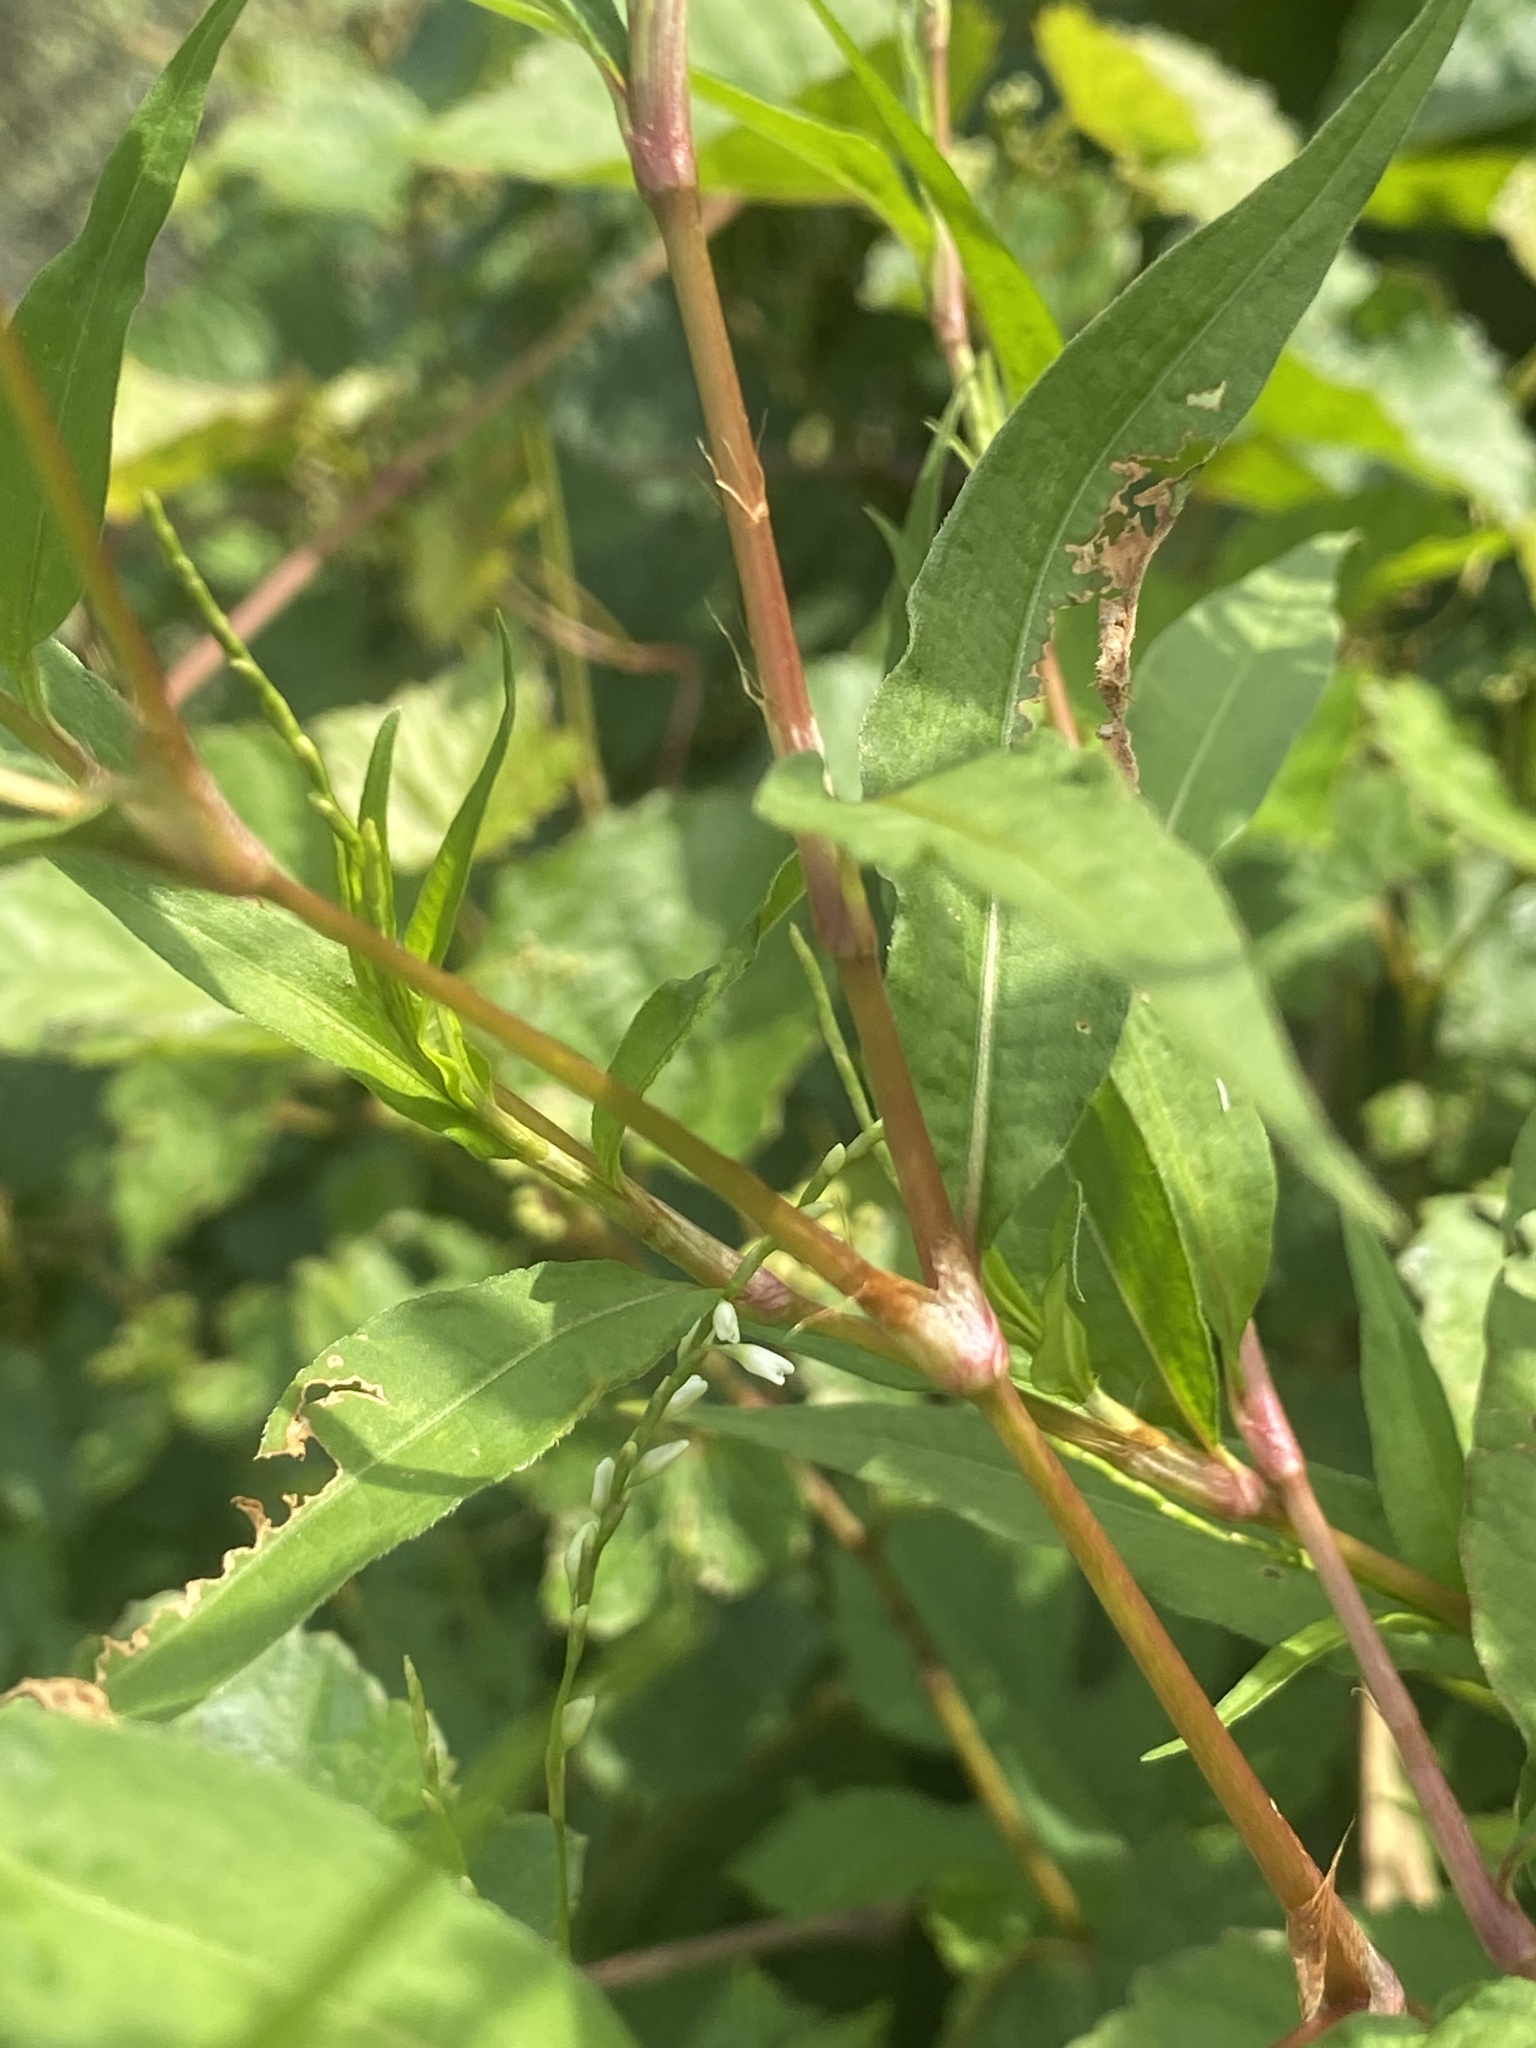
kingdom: Plantae
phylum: Tracheophyta
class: Magnoliopsida
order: Caryophyllales
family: Polygonaceae
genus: Persicaria
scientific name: Persicaria punctata
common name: Dotted smartweed
